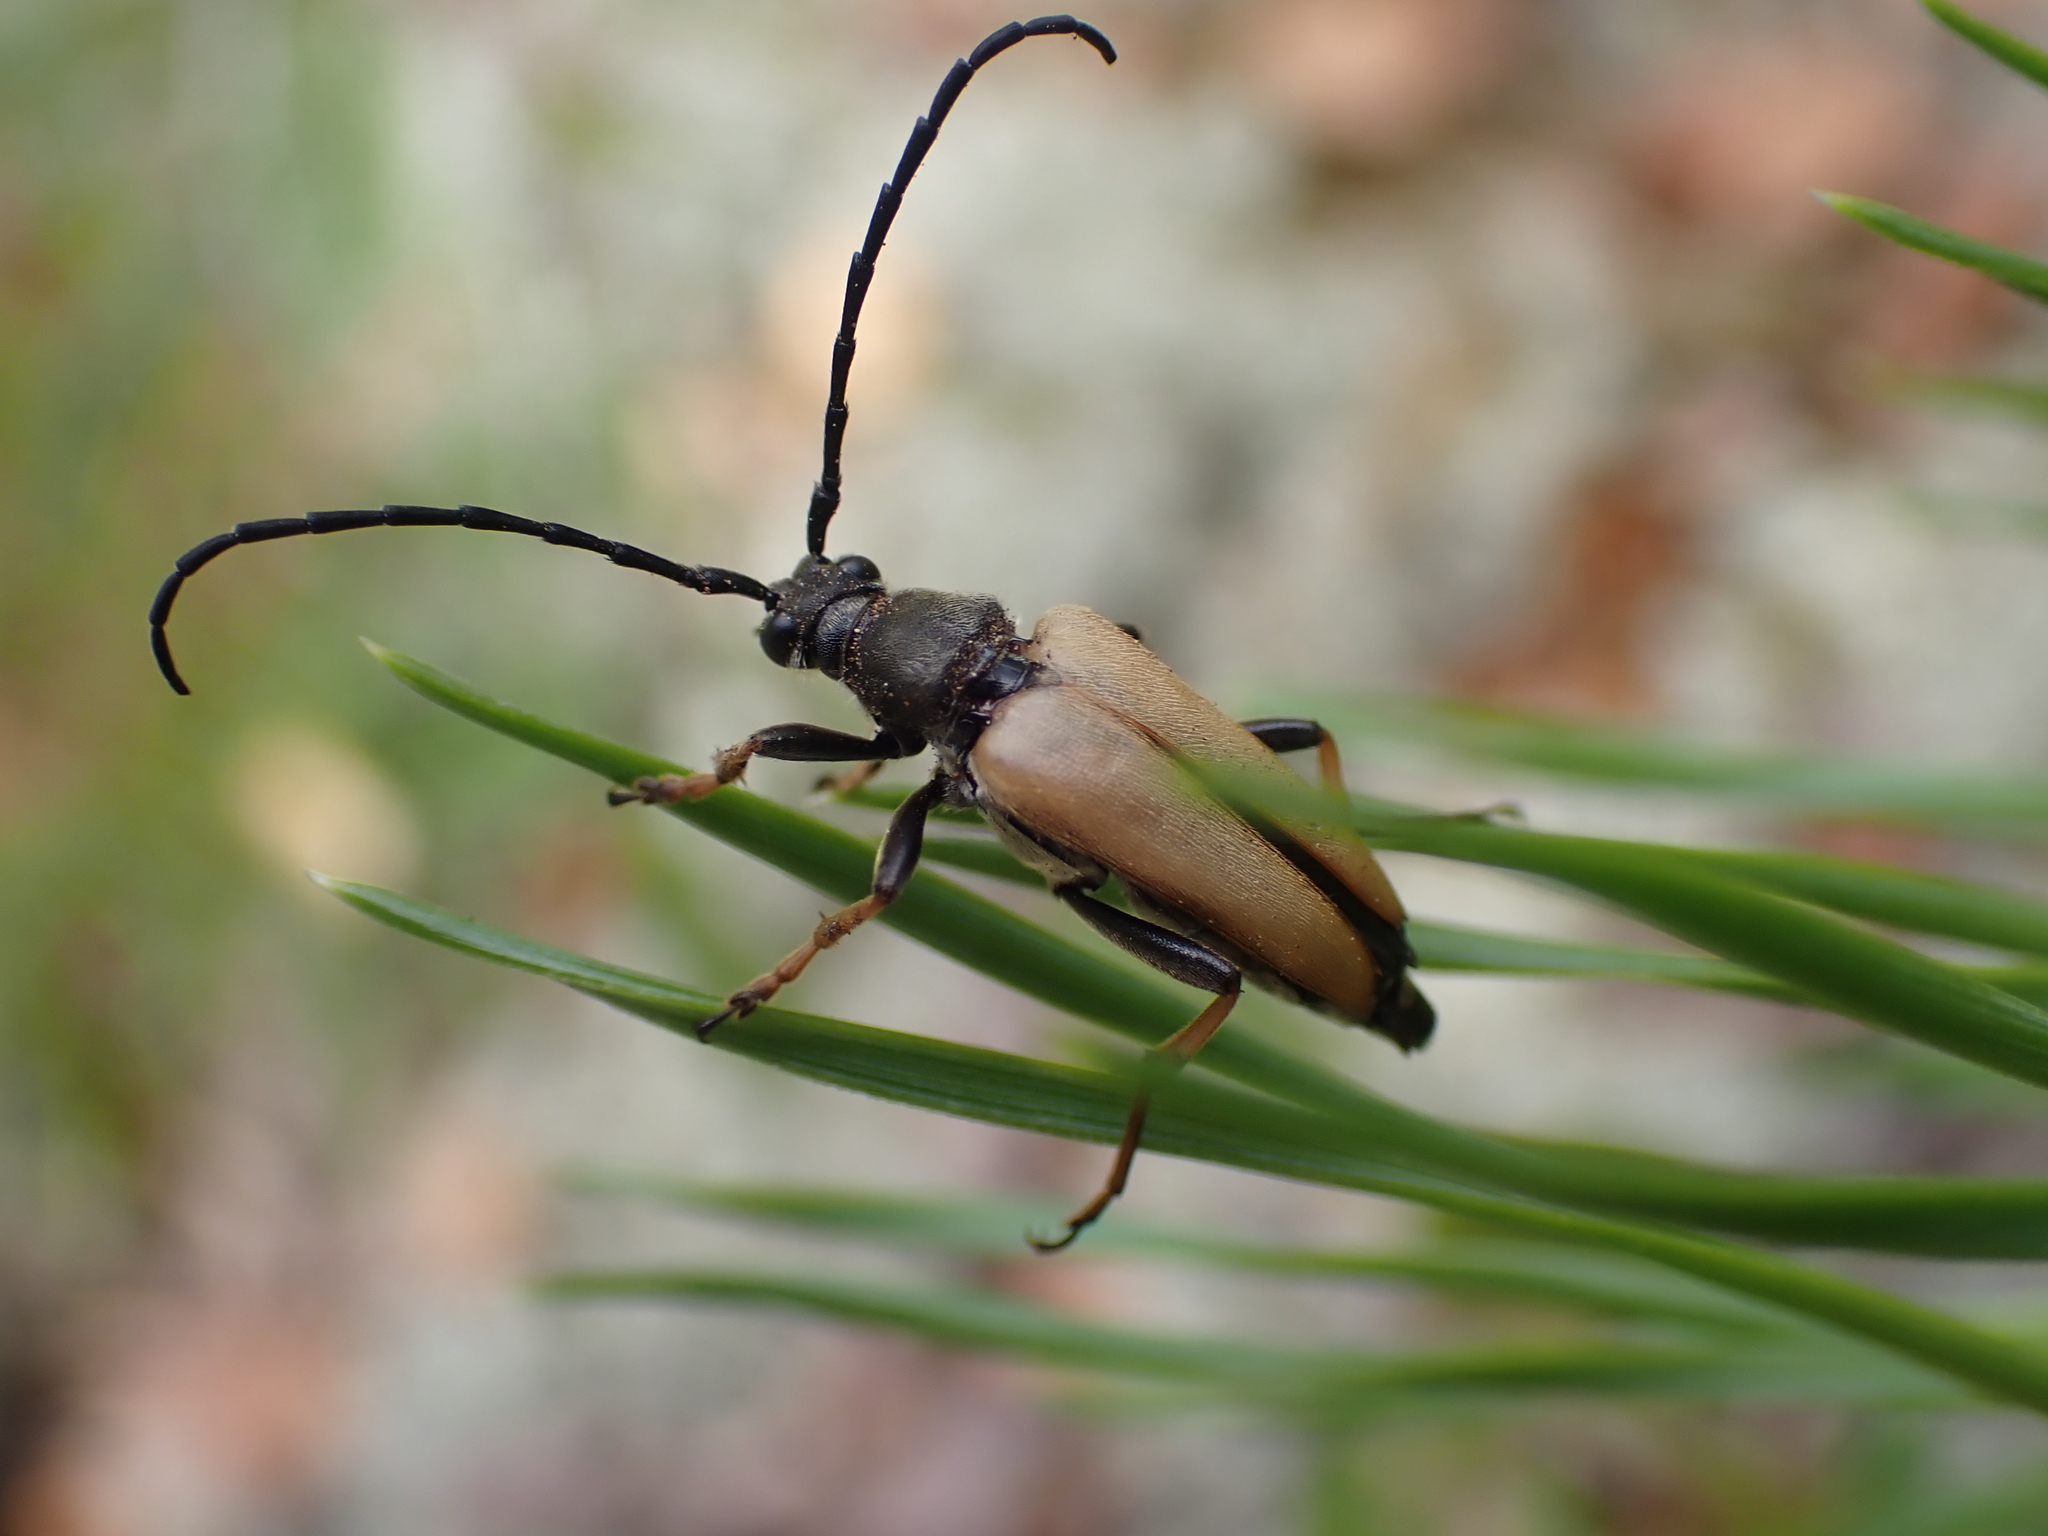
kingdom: Animalia
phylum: Arthropoda
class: Insecta
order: Coleoptera
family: Cerambycidae
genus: Stictoleptura
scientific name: Stictoleptura rubra
